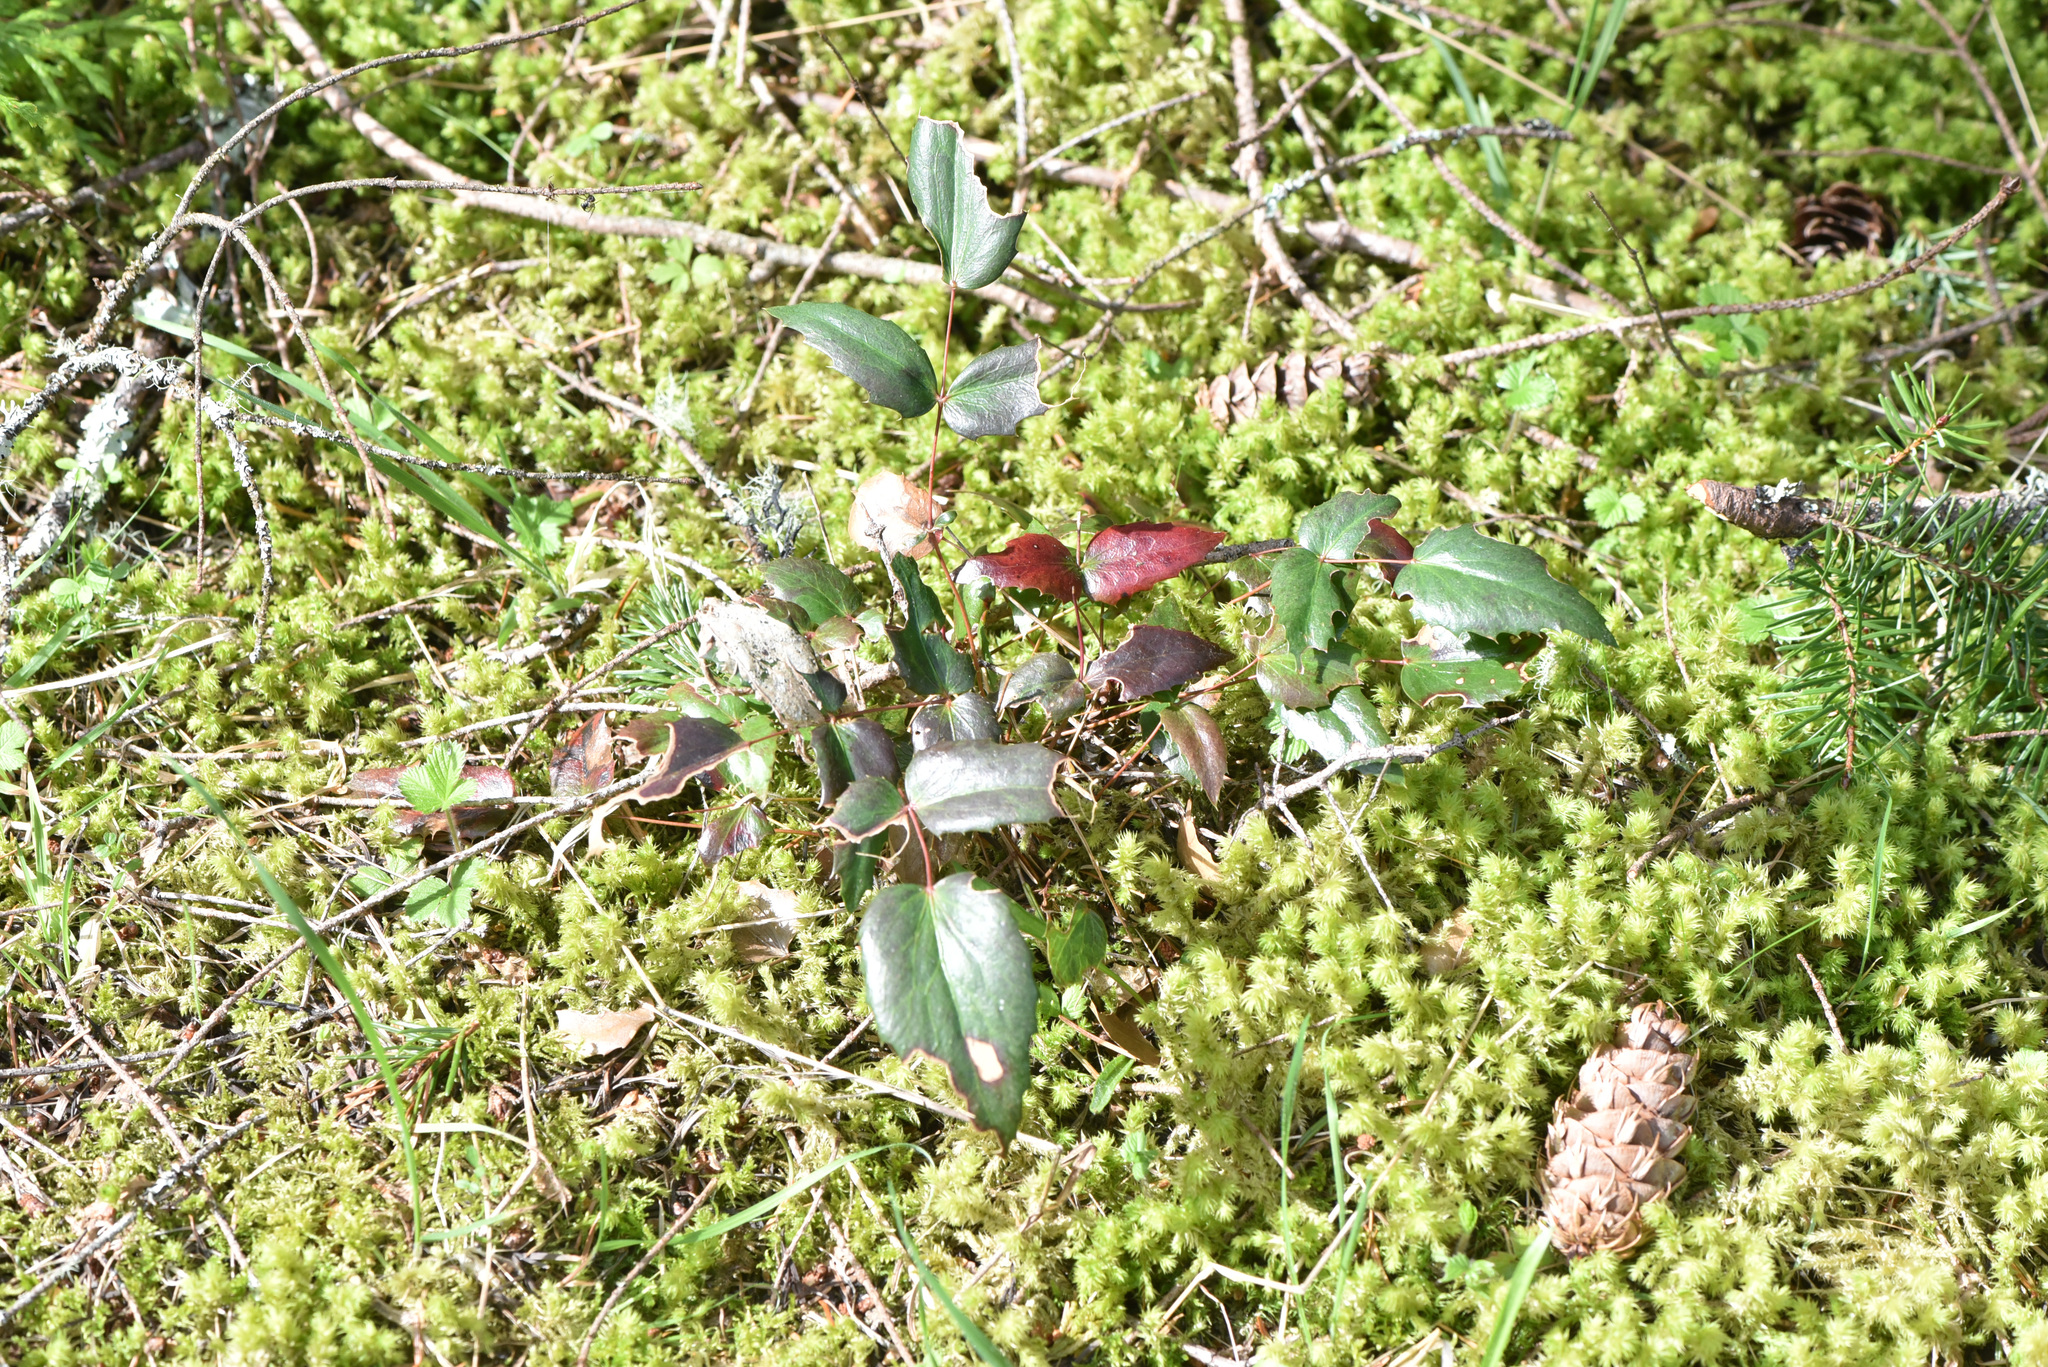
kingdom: Plantae
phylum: Tracheophyta
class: Magnoliopsida
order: Ranunculales
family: Berberidaceae
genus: Mahonia
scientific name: Mahonia nervosa
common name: Cascade oregon-grape
